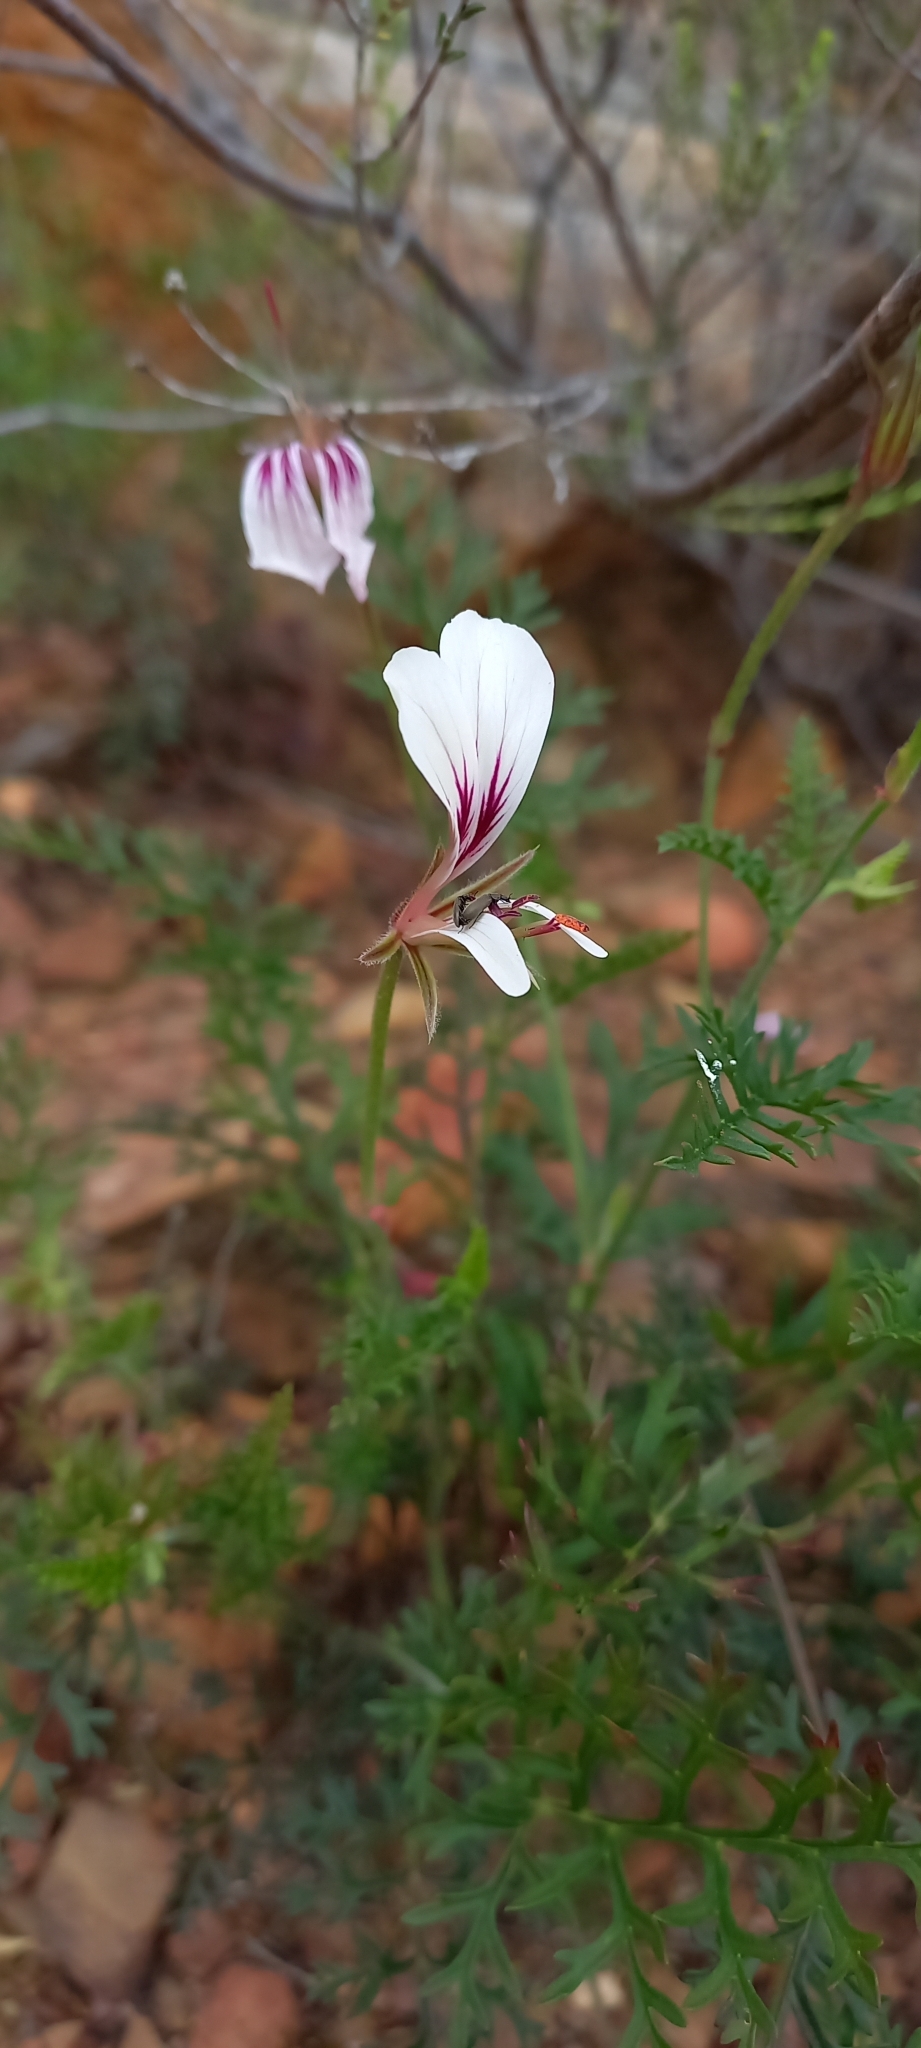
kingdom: Plantae
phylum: Tracheophyta
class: Magnoliopsida
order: Geraniales
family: Geraniaceae
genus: Pelargonium
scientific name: Pelargonium caucalifolium
